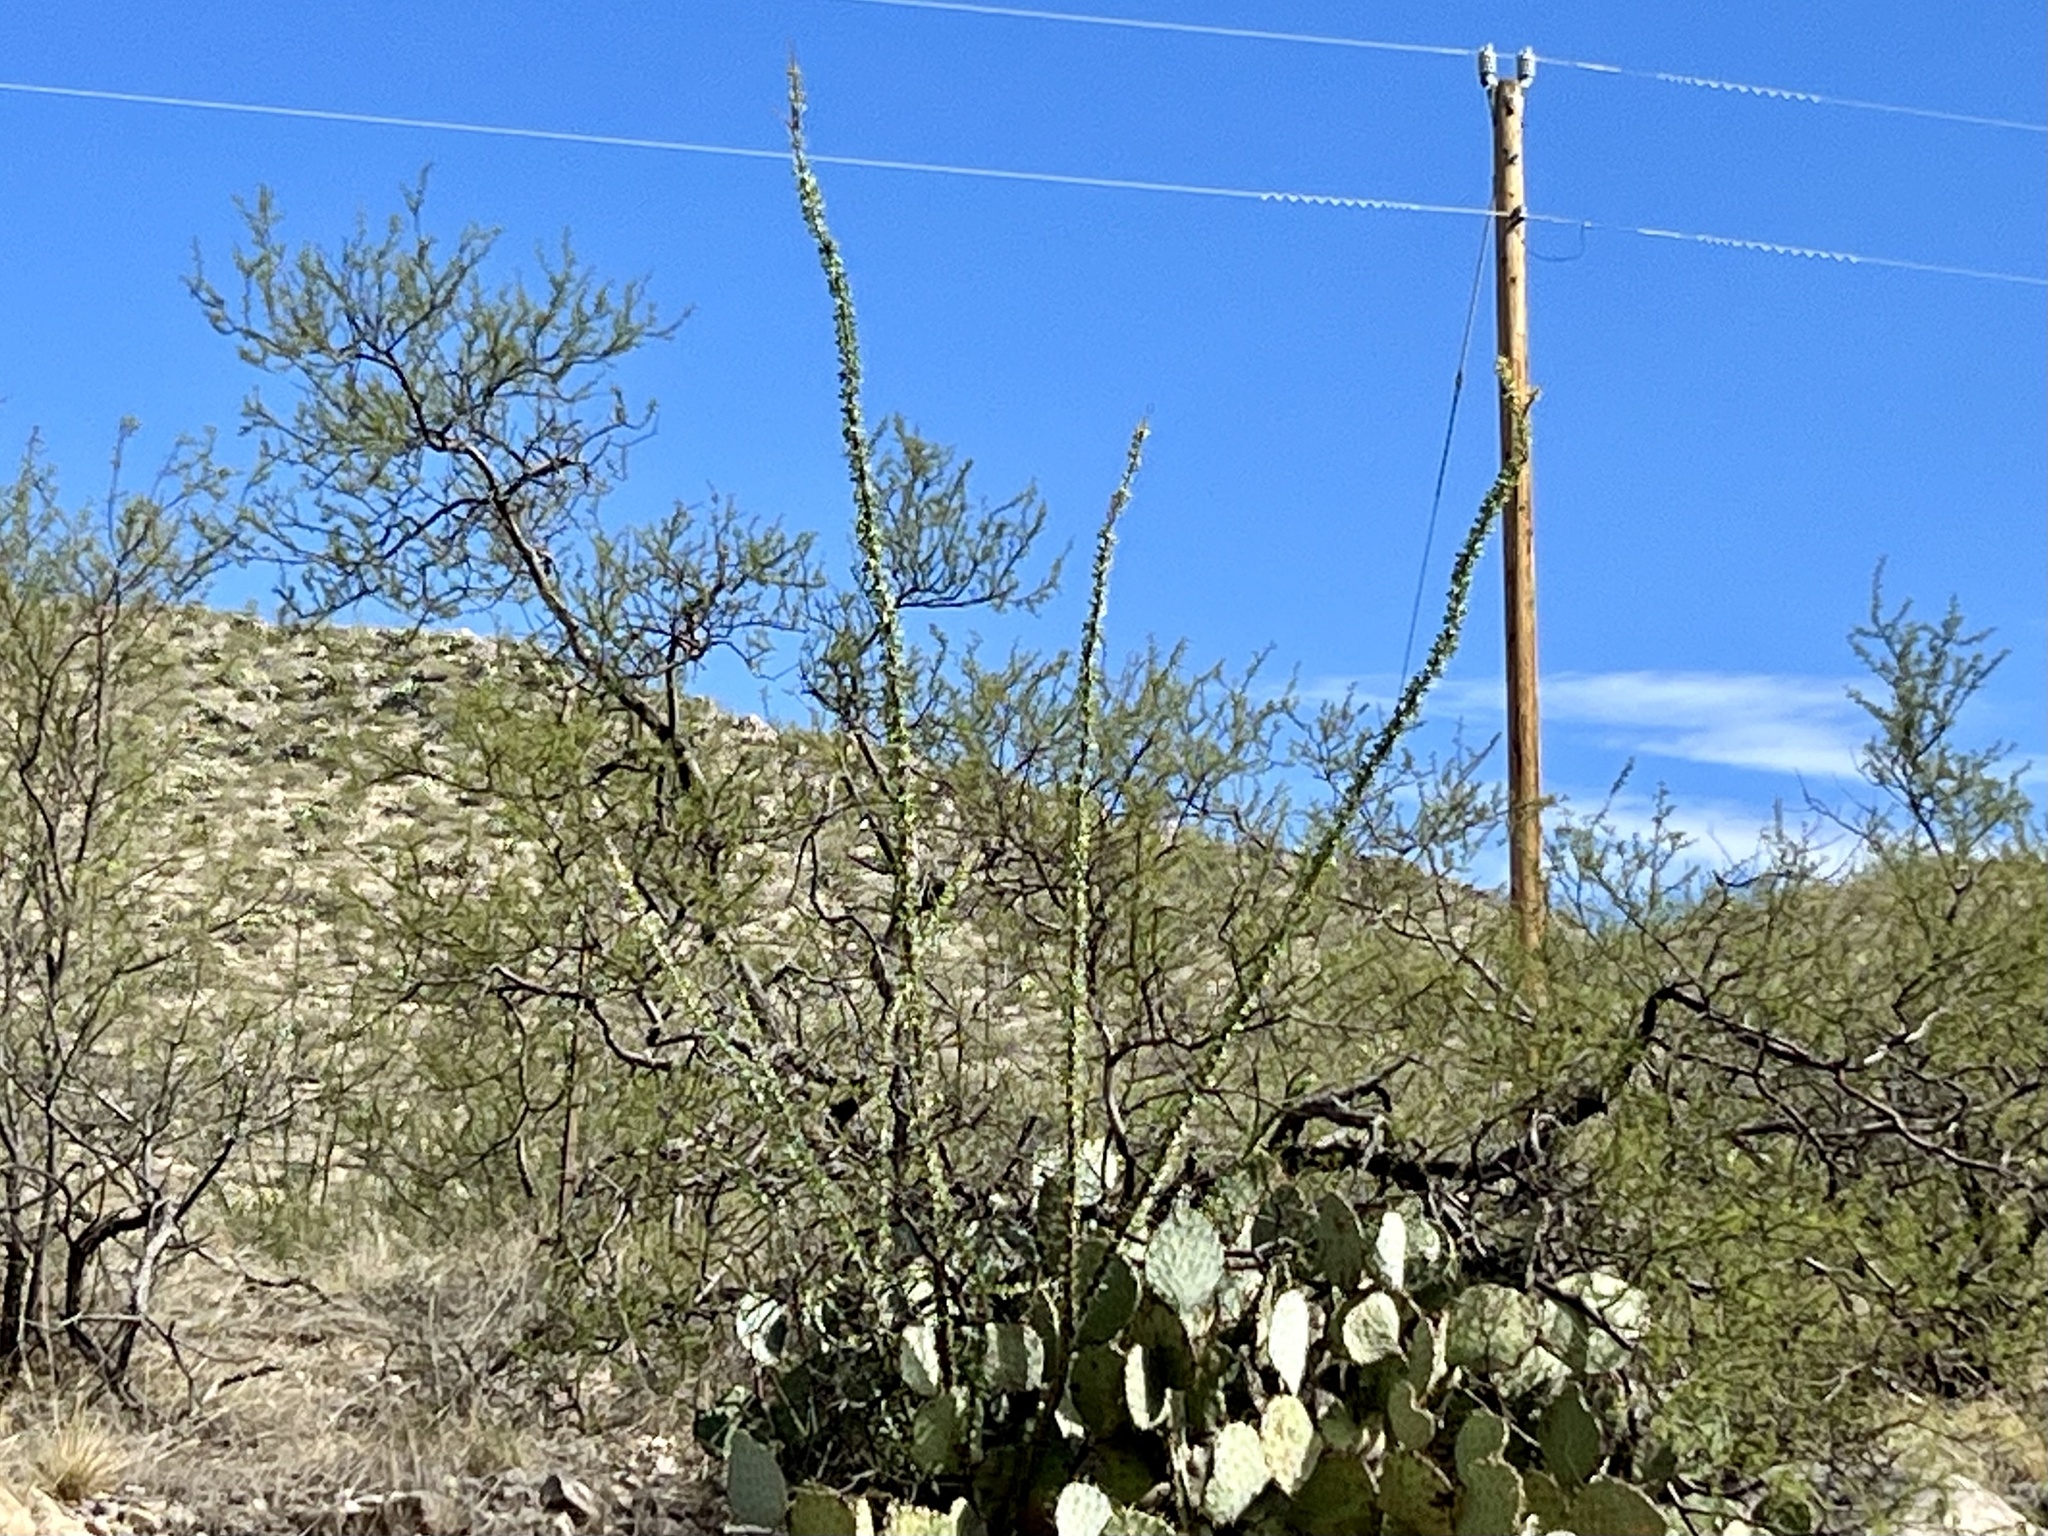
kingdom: Plantae
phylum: Tracheophyta
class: Magnoliopsida
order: Ericales
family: Fouquieriaceae
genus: Fouquieria
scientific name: Fouquieria splendens
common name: Vine-cactus
